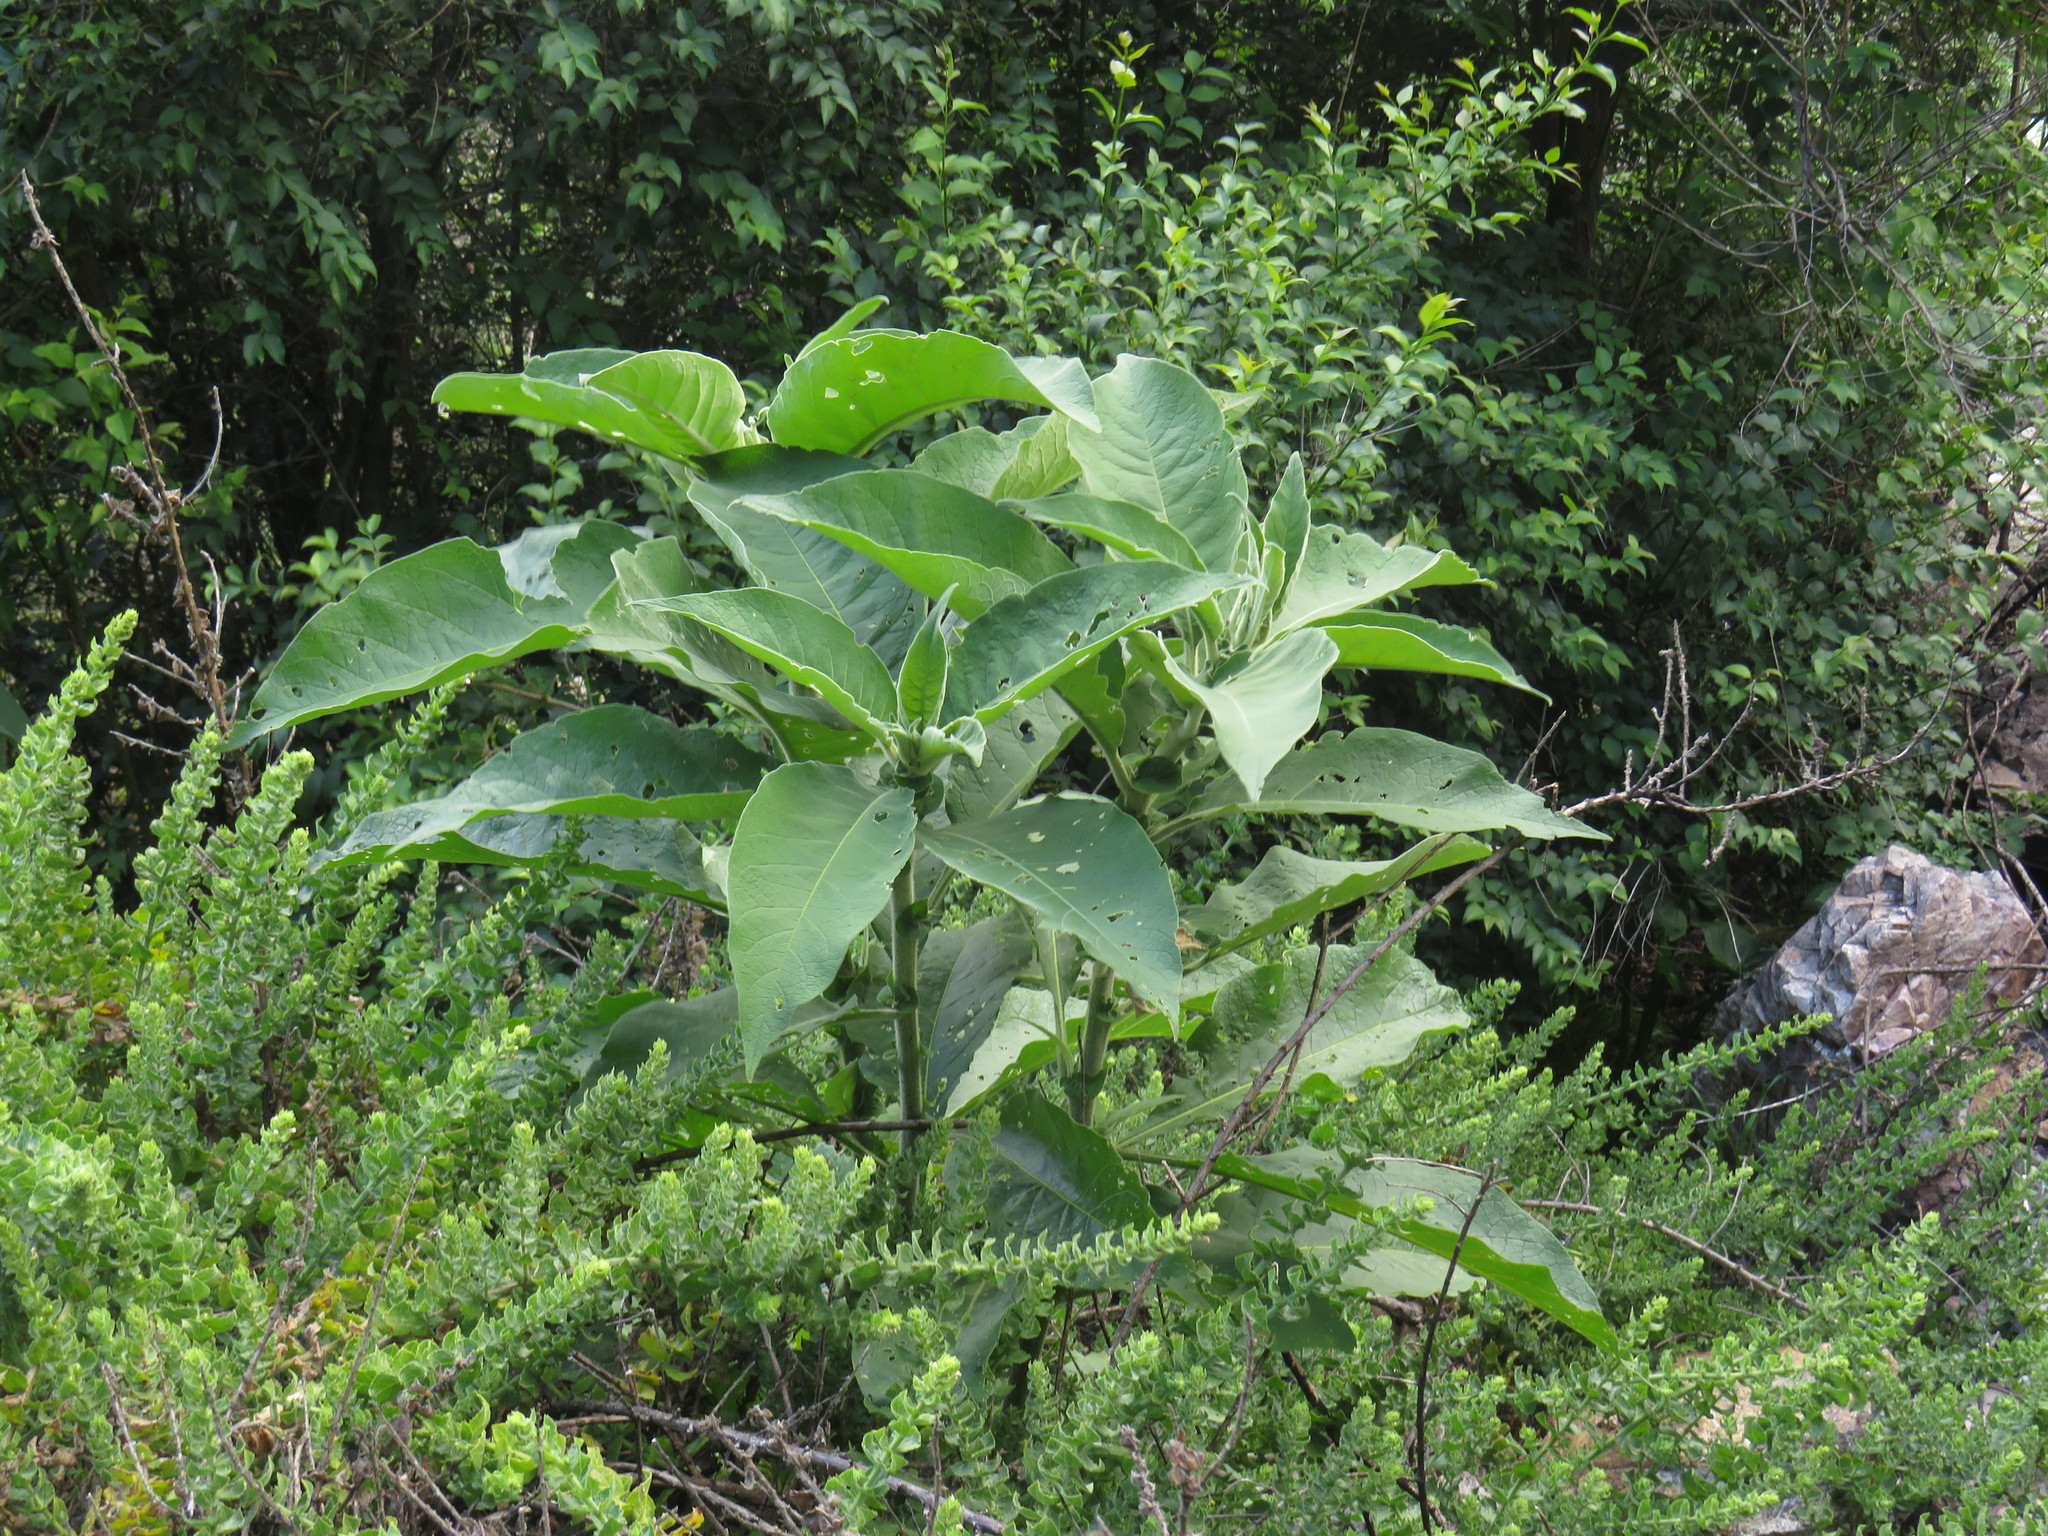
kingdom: Plantae
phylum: Tracheophyta
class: Magnoliopsida
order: Solanales
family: Solanaceae
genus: Solanum
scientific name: Solanum mauritianum
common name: Earleaf nightshade
